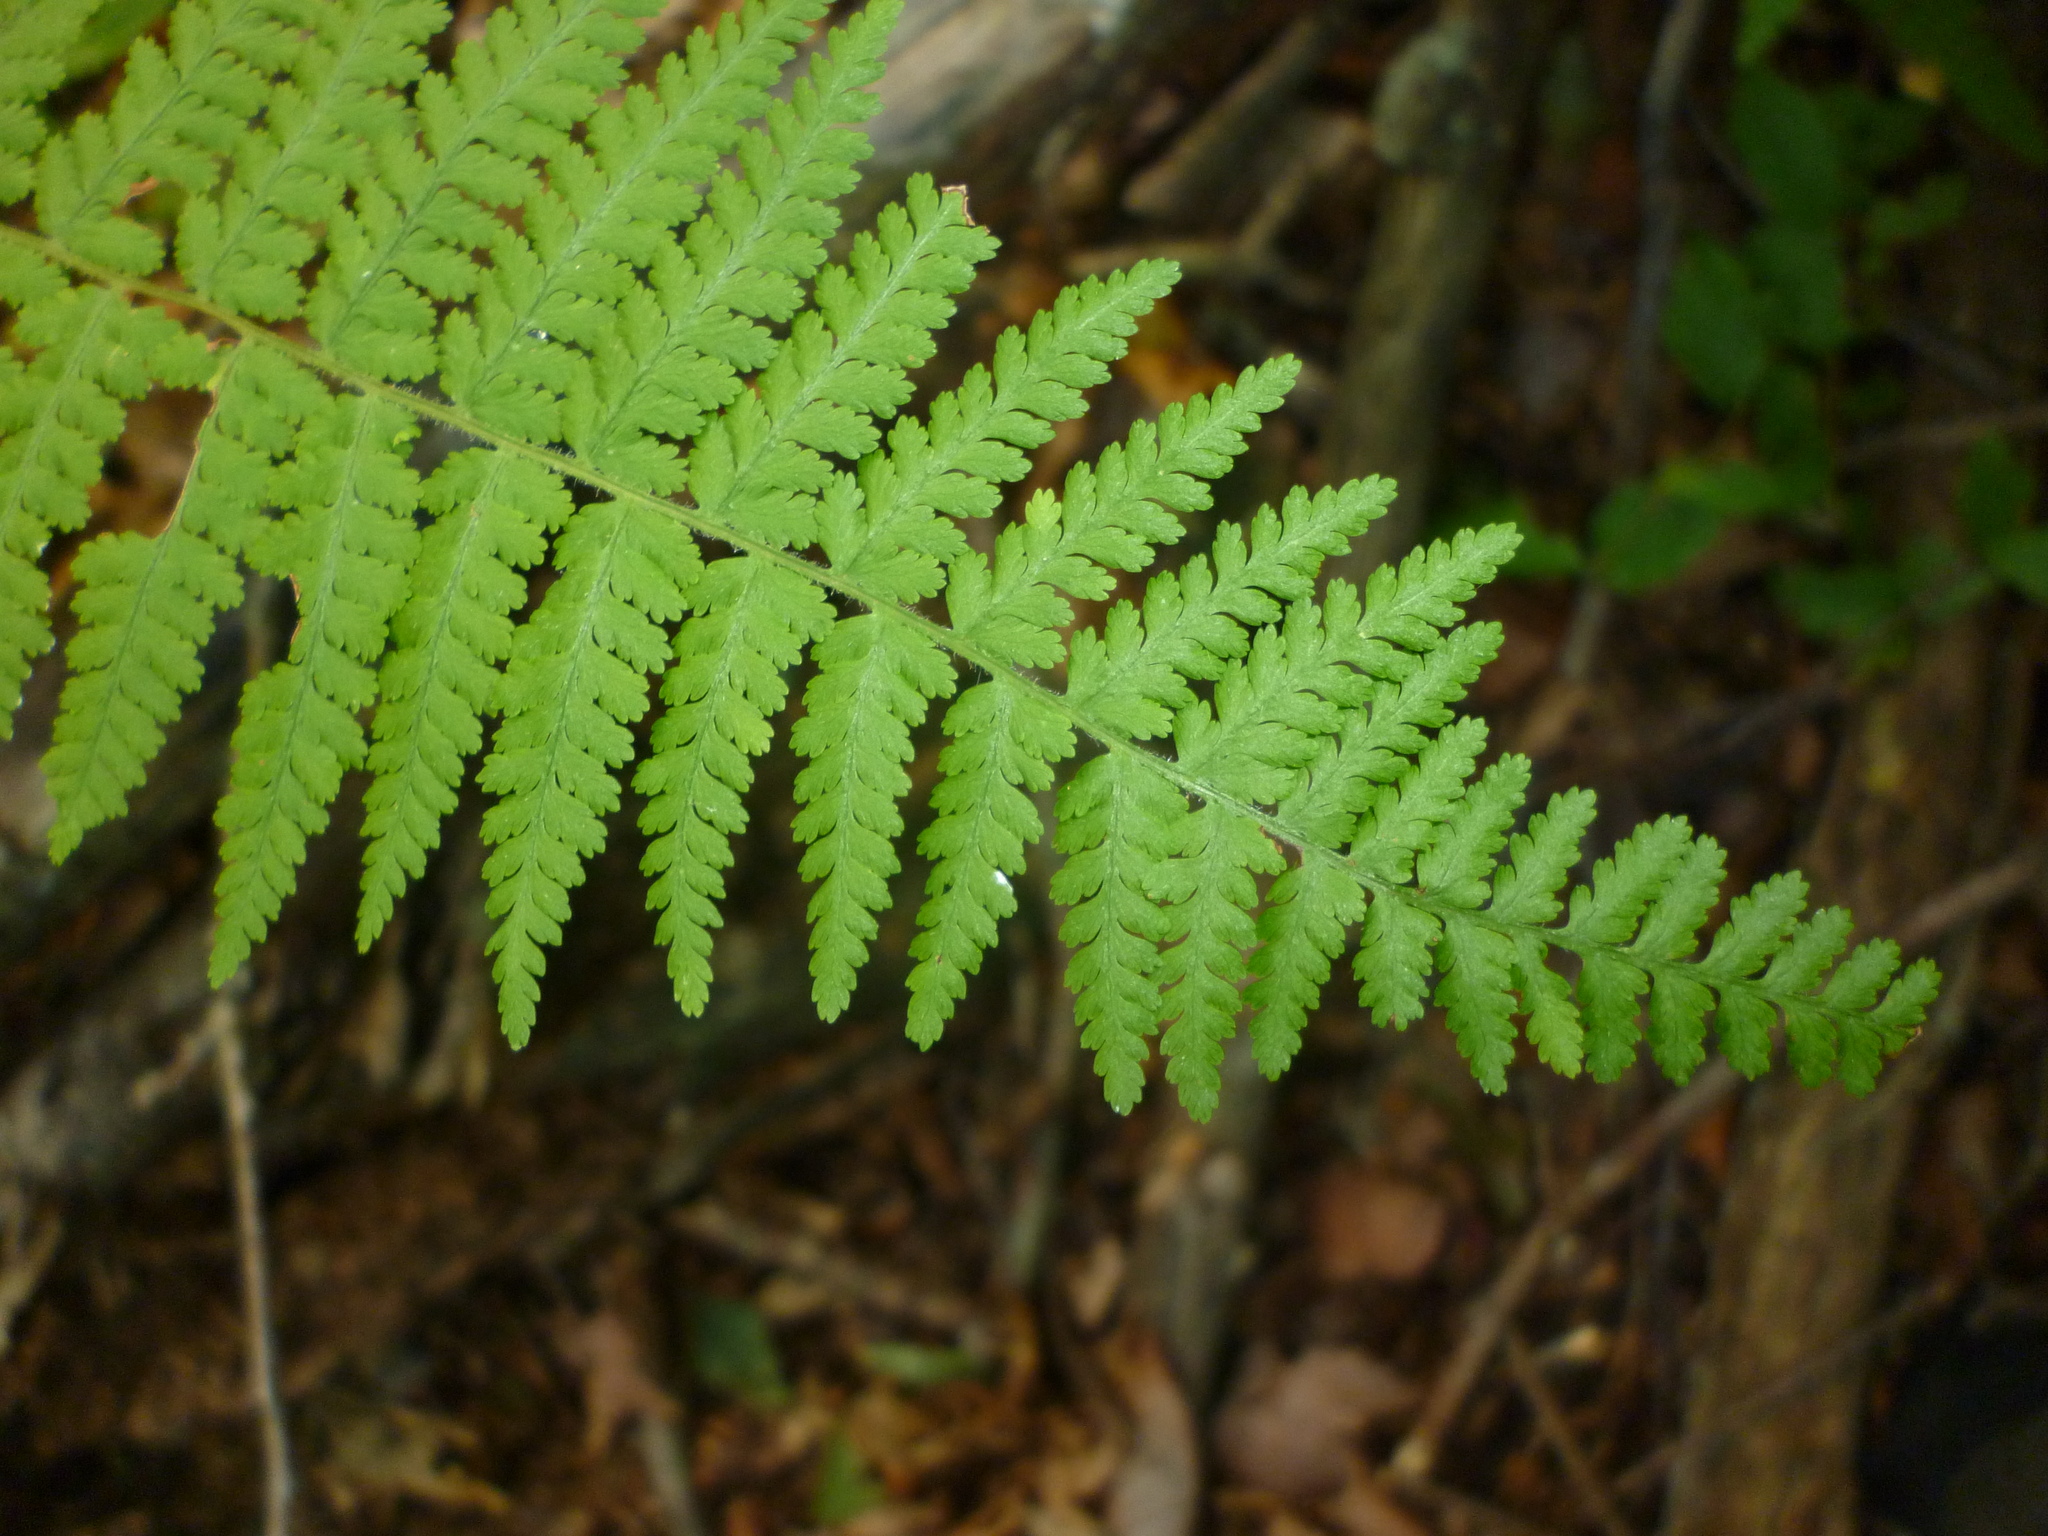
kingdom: Plantae
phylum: Tracheophyta
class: Polypodiopsida
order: Polypodiales
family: Dennstaedtiaceae
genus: Sitobolium
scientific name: Sitobolium punctilobum
